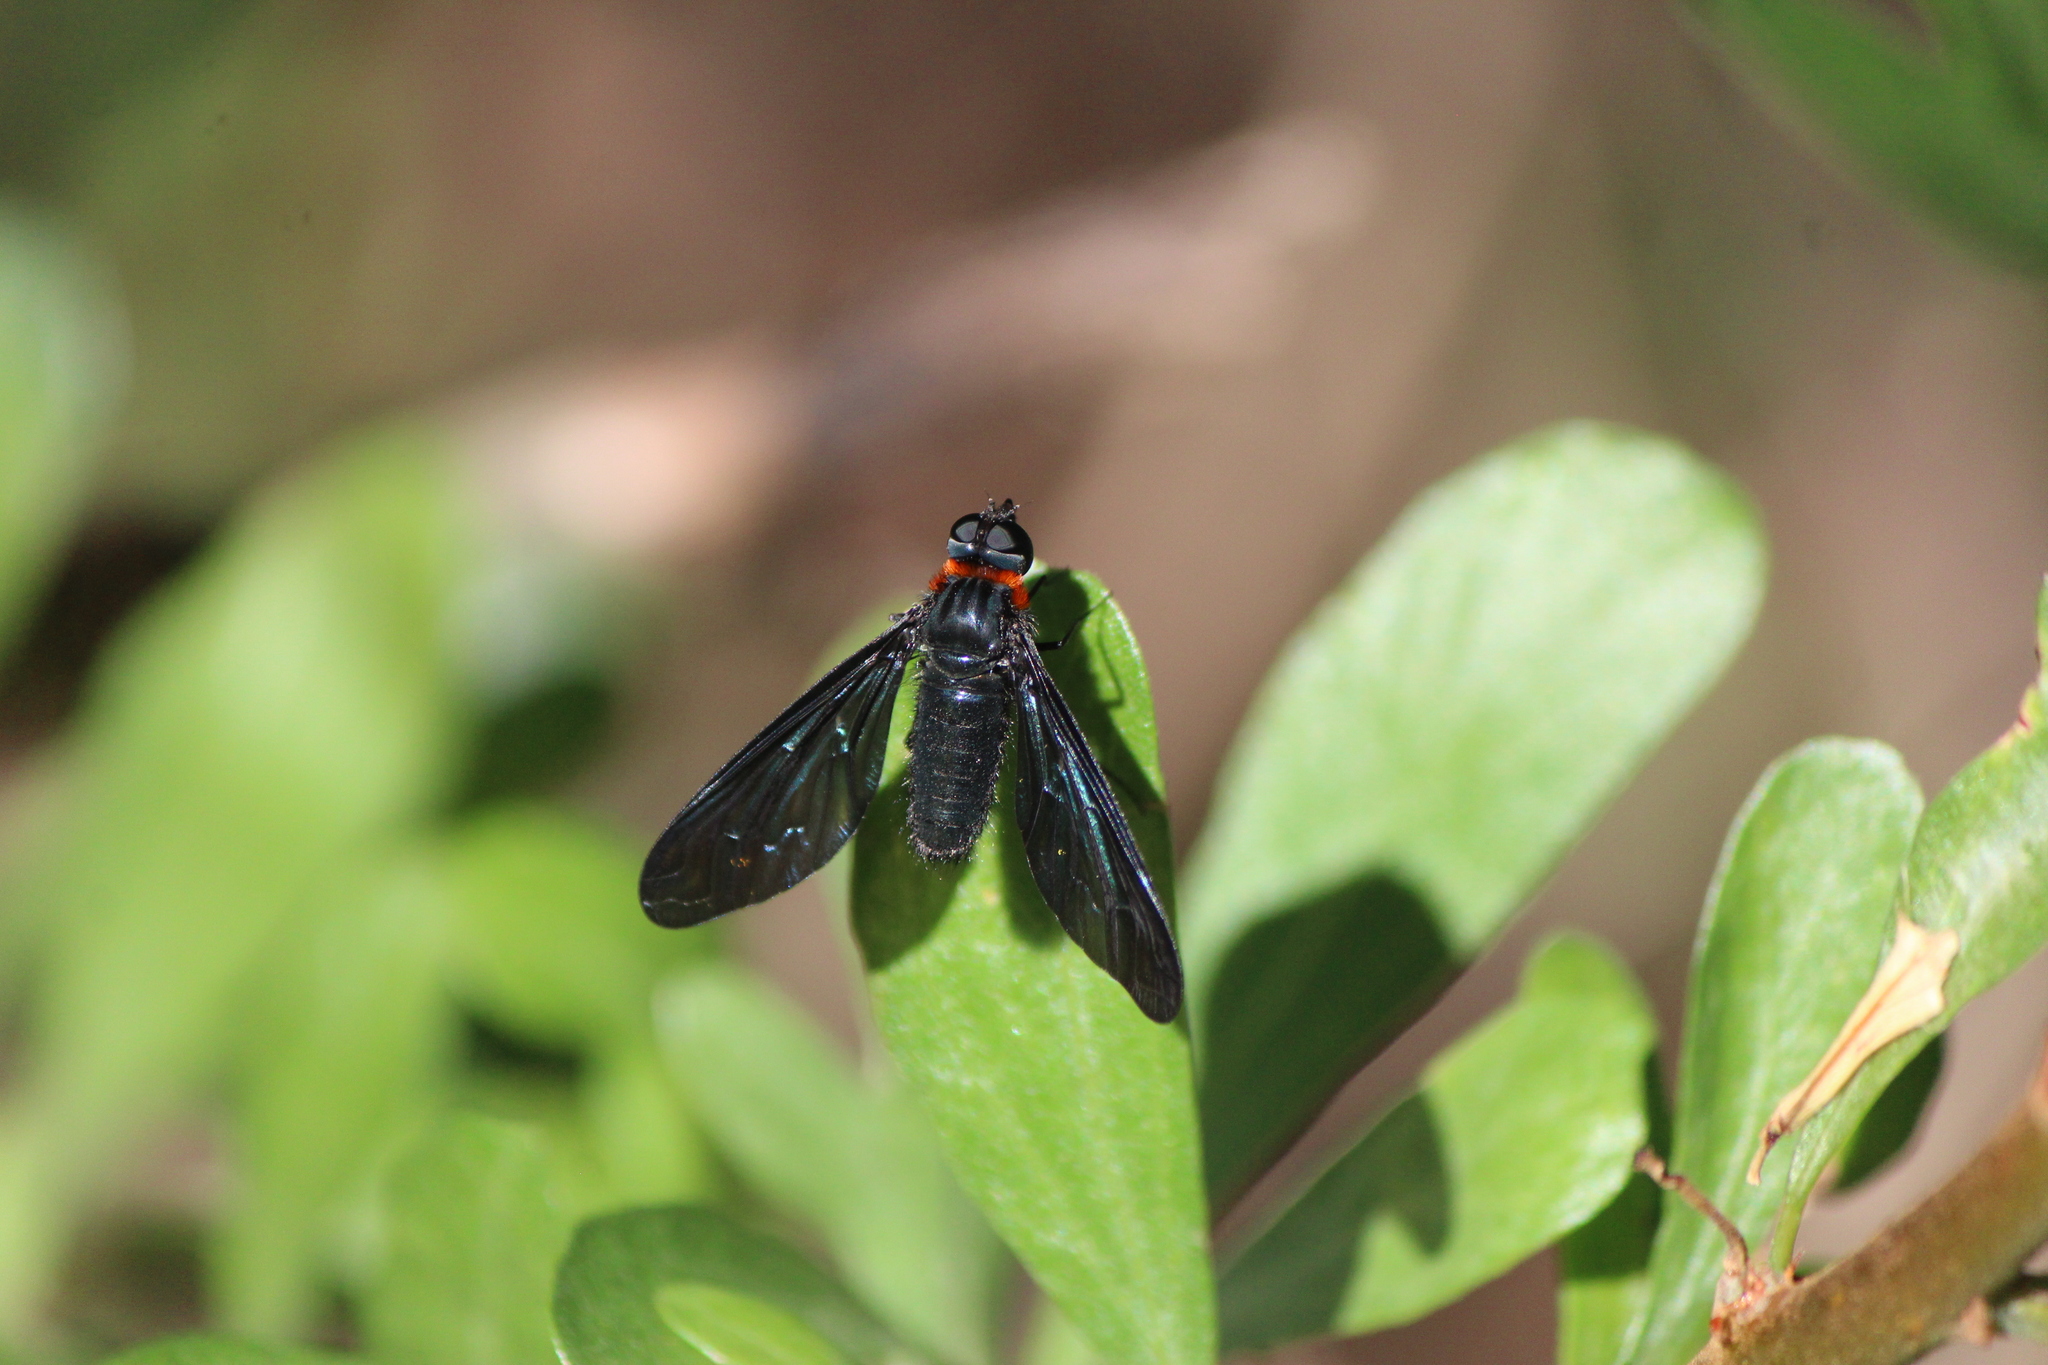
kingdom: Animalia
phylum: Arthropoda
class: Insecta
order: Diptera
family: Bombyliidae
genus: Cyananthrax
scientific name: Cyananthrax cyanoptera
